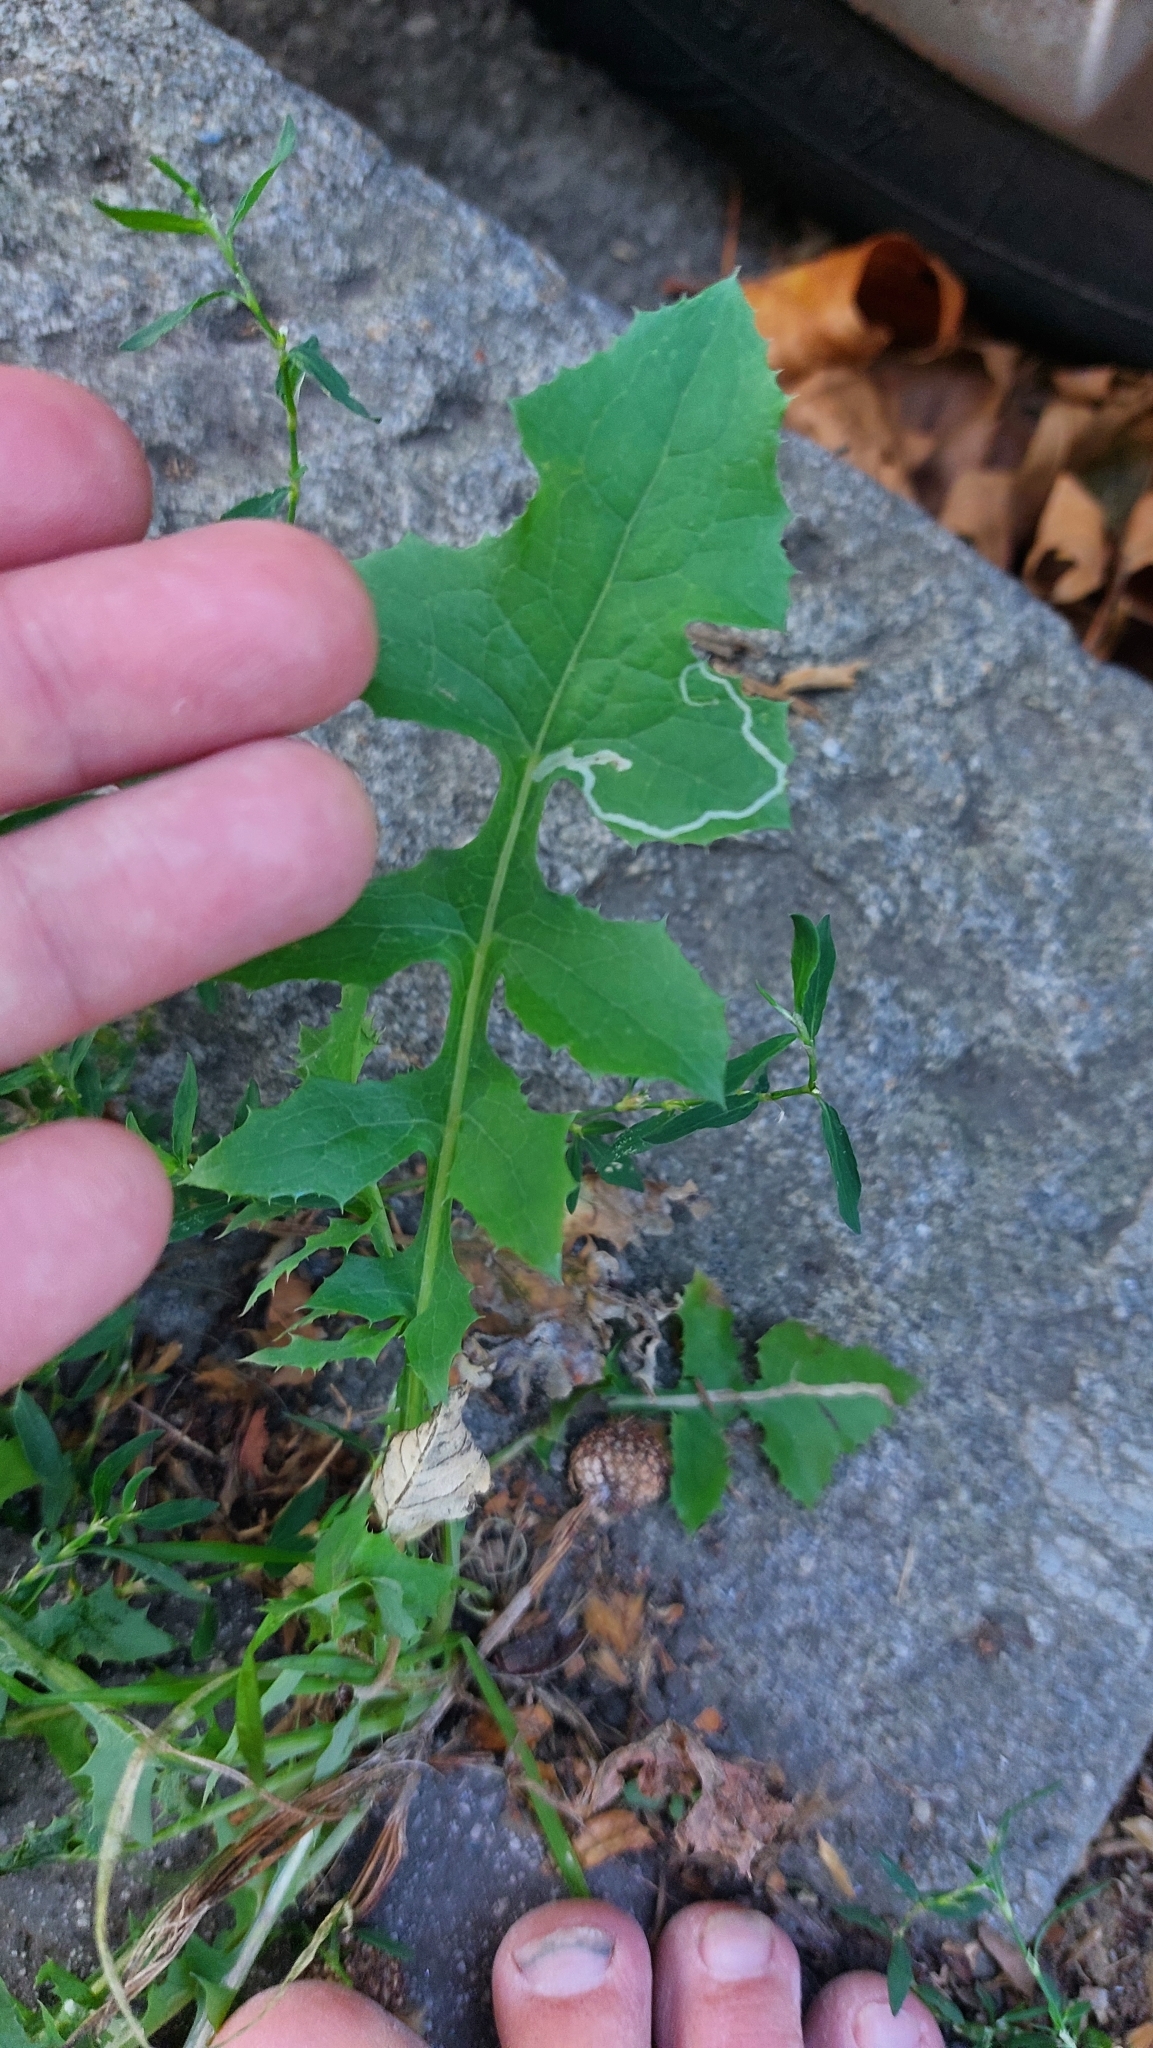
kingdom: Plantae
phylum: Tracheophyta
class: Magnoliopsida
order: Asterales
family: Asteraceae
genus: Sonchus
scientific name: Sonchus oleraceus
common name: Common sowthistle
